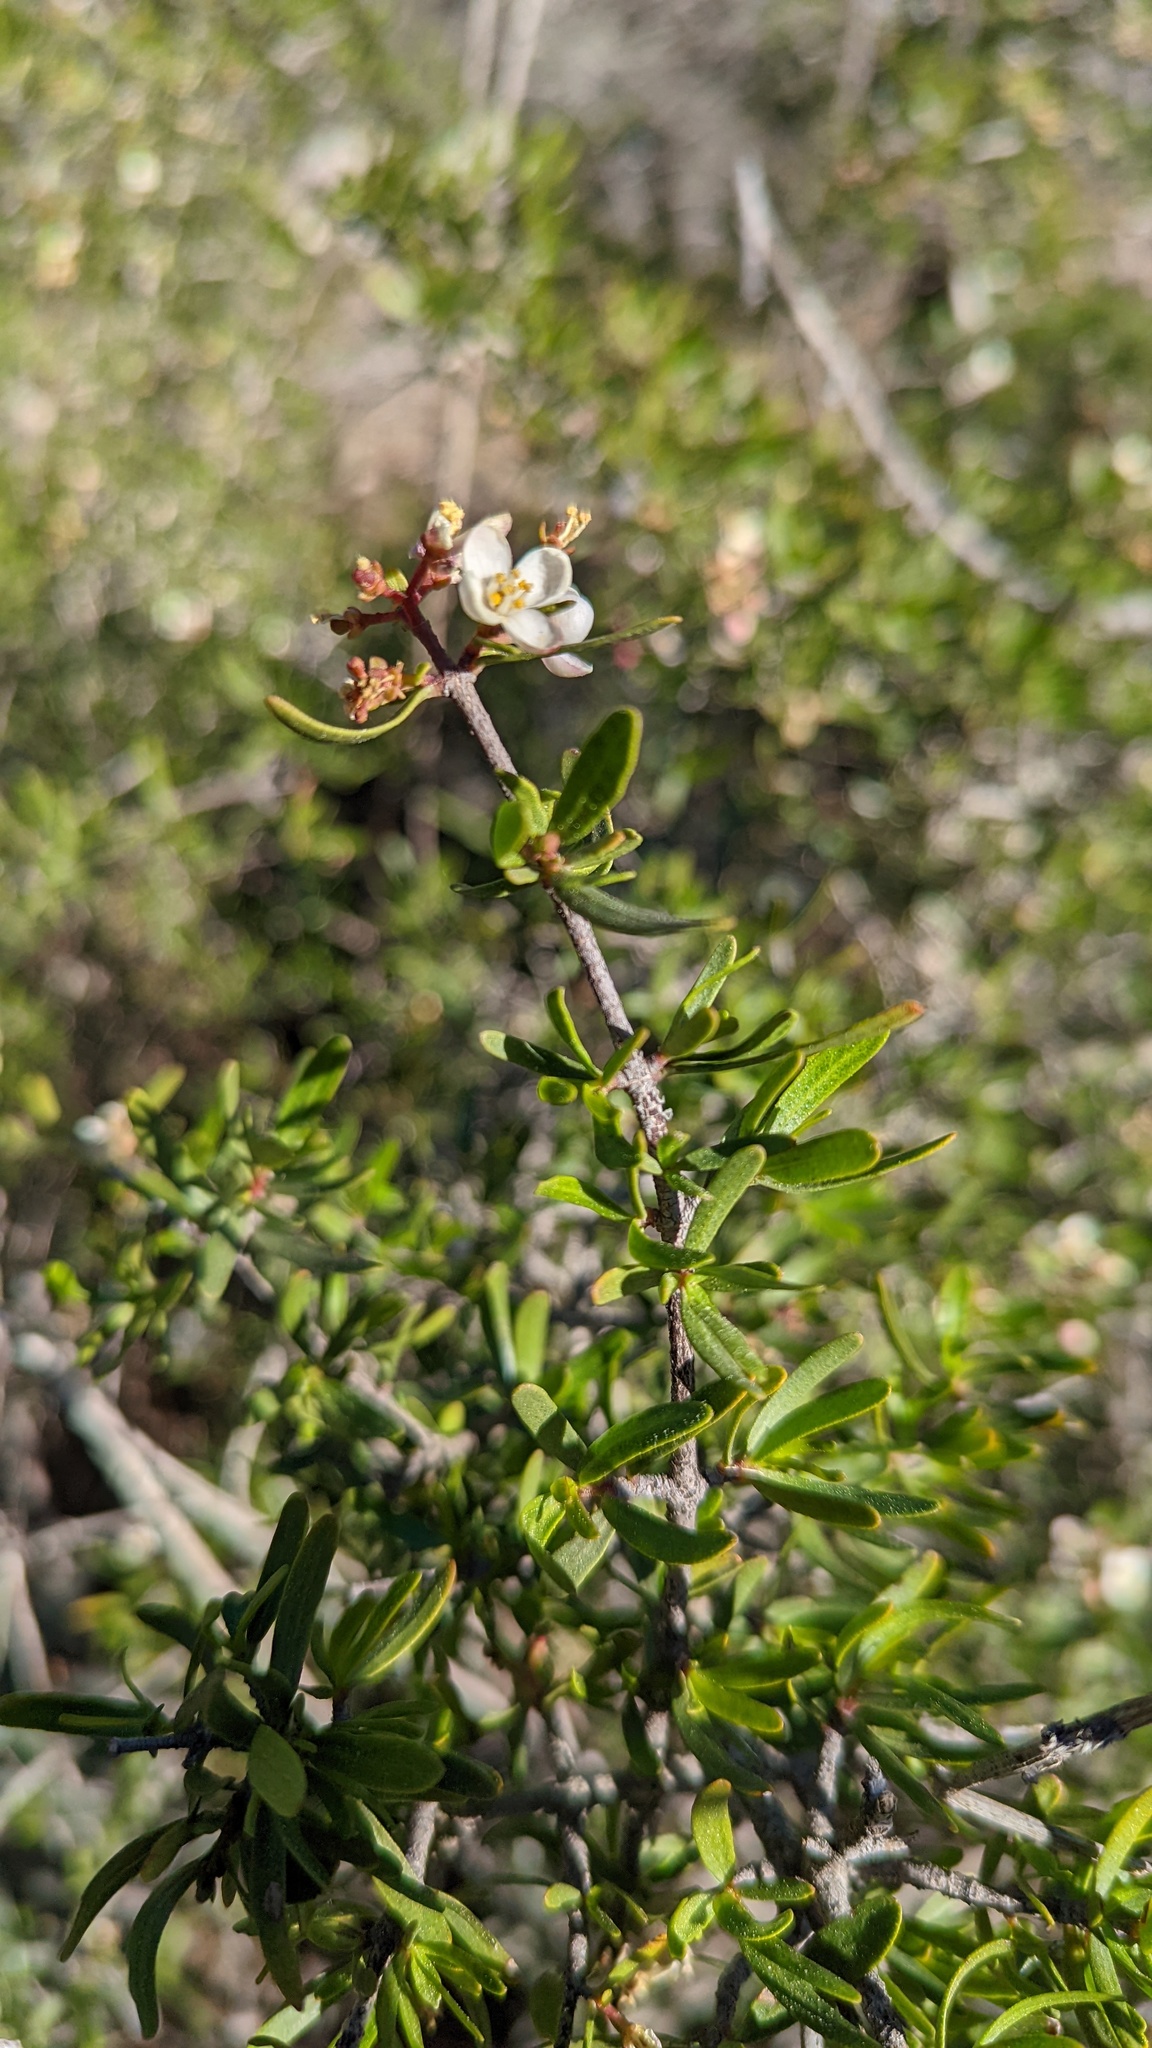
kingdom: Plantae
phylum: Tracheophyta
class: Magnoliopsida
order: Sapindales
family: Rutaceae
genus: Cneoridium
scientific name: Cneoridium dumosum
